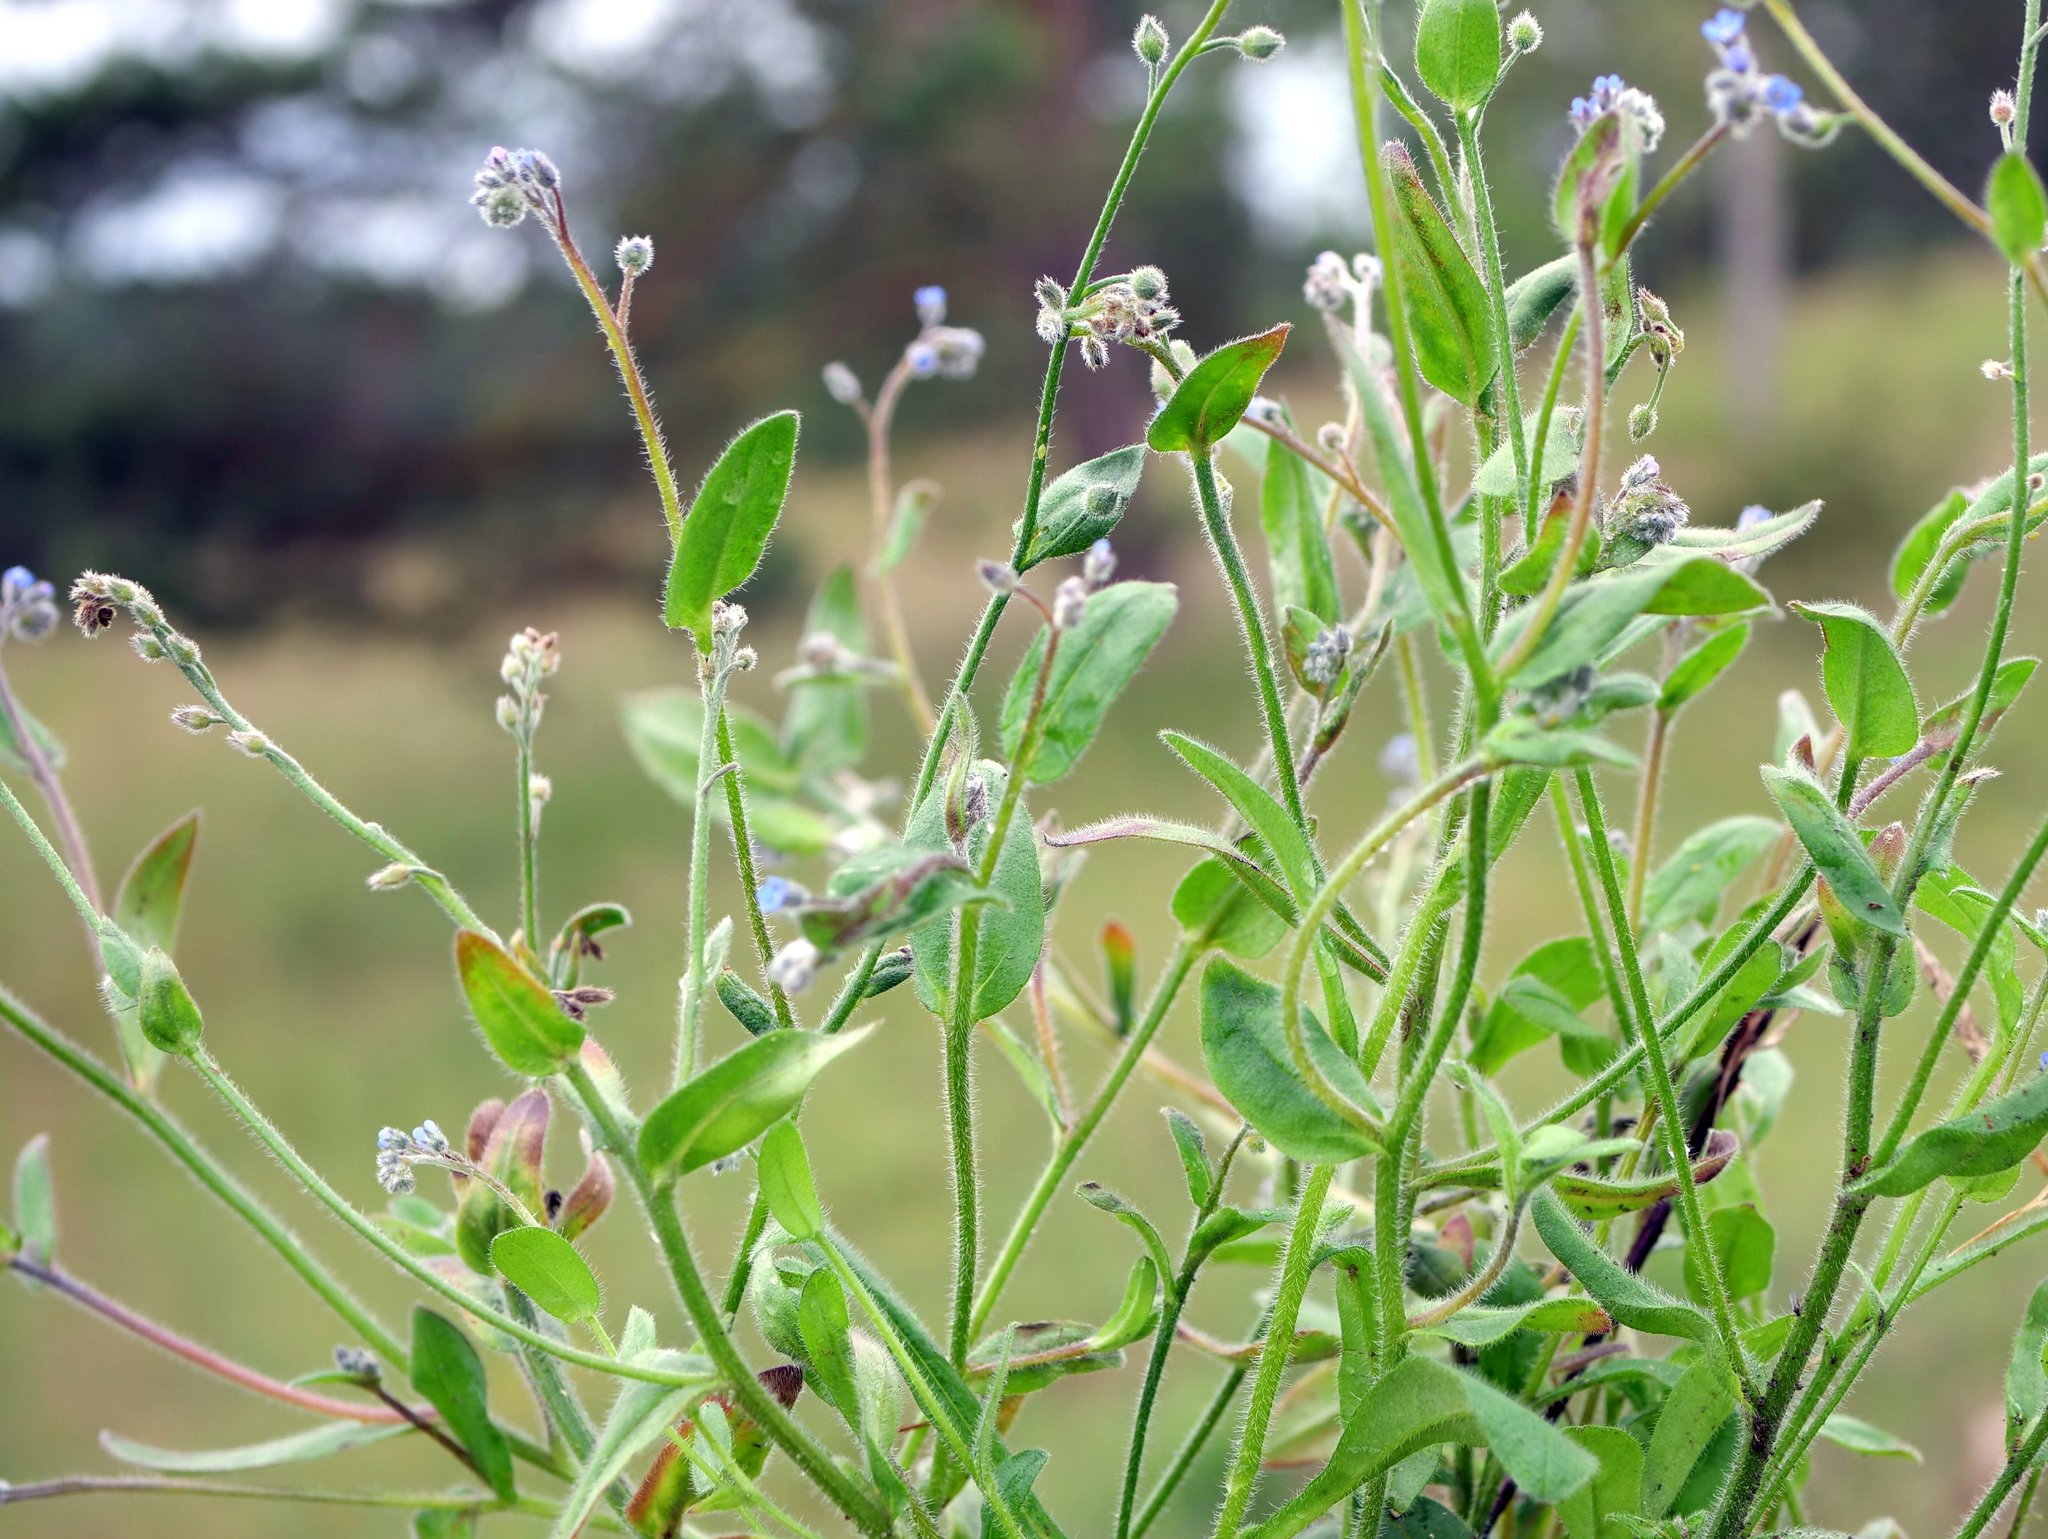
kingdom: Plantae
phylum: Tracheophyta
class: Magnoliopsida
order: Boraginales
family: Boraginaceae
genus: Myosotis
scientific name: Myosotis arvensis
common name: Field forget-me-not
